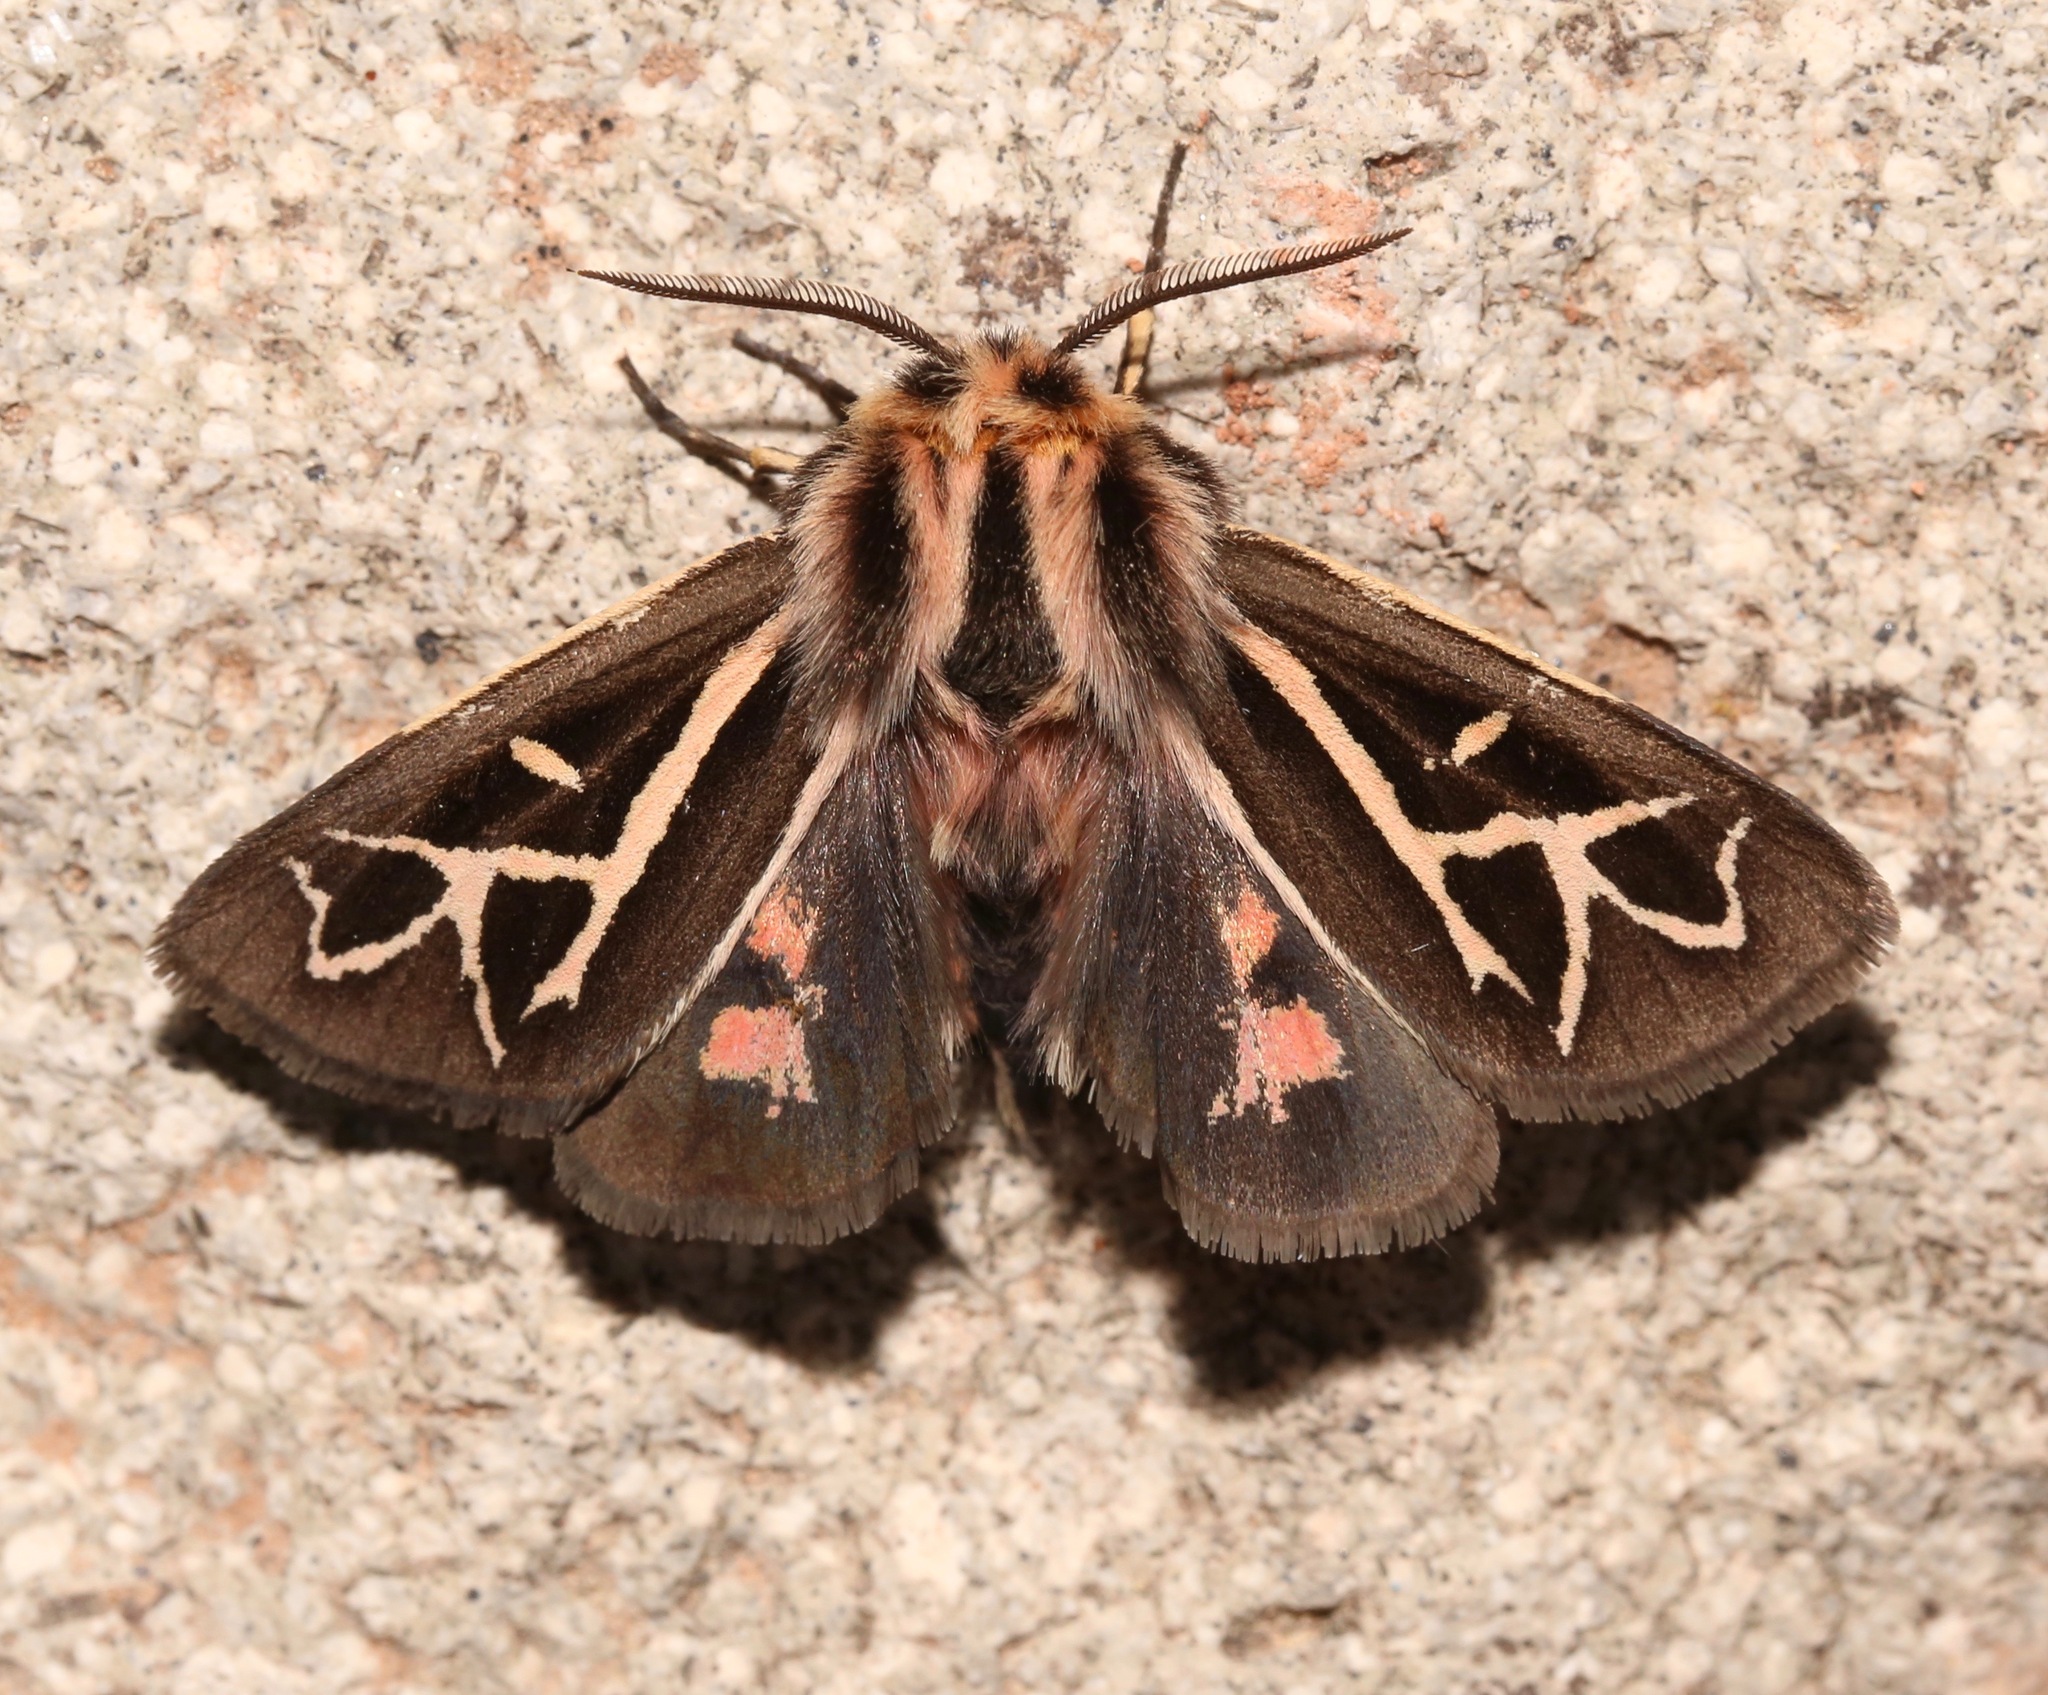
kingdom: Animalia
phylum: Arthropoda
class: Insecta
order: Lepidoptera
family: Erebidae
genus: Apantesis
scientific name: Apantesis
